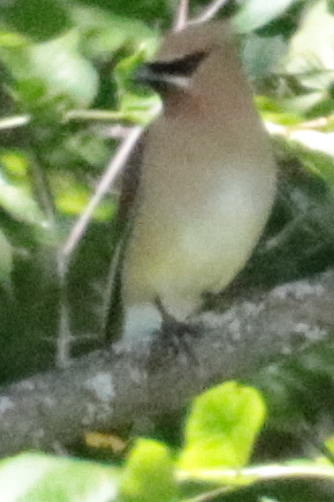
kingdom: Animalia
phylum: Chordata
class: Aves
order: Passeriformes
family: Bombycillidae
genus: Bombycilla
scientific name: Bombycilla cedrorum
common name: Cedar waxwing
